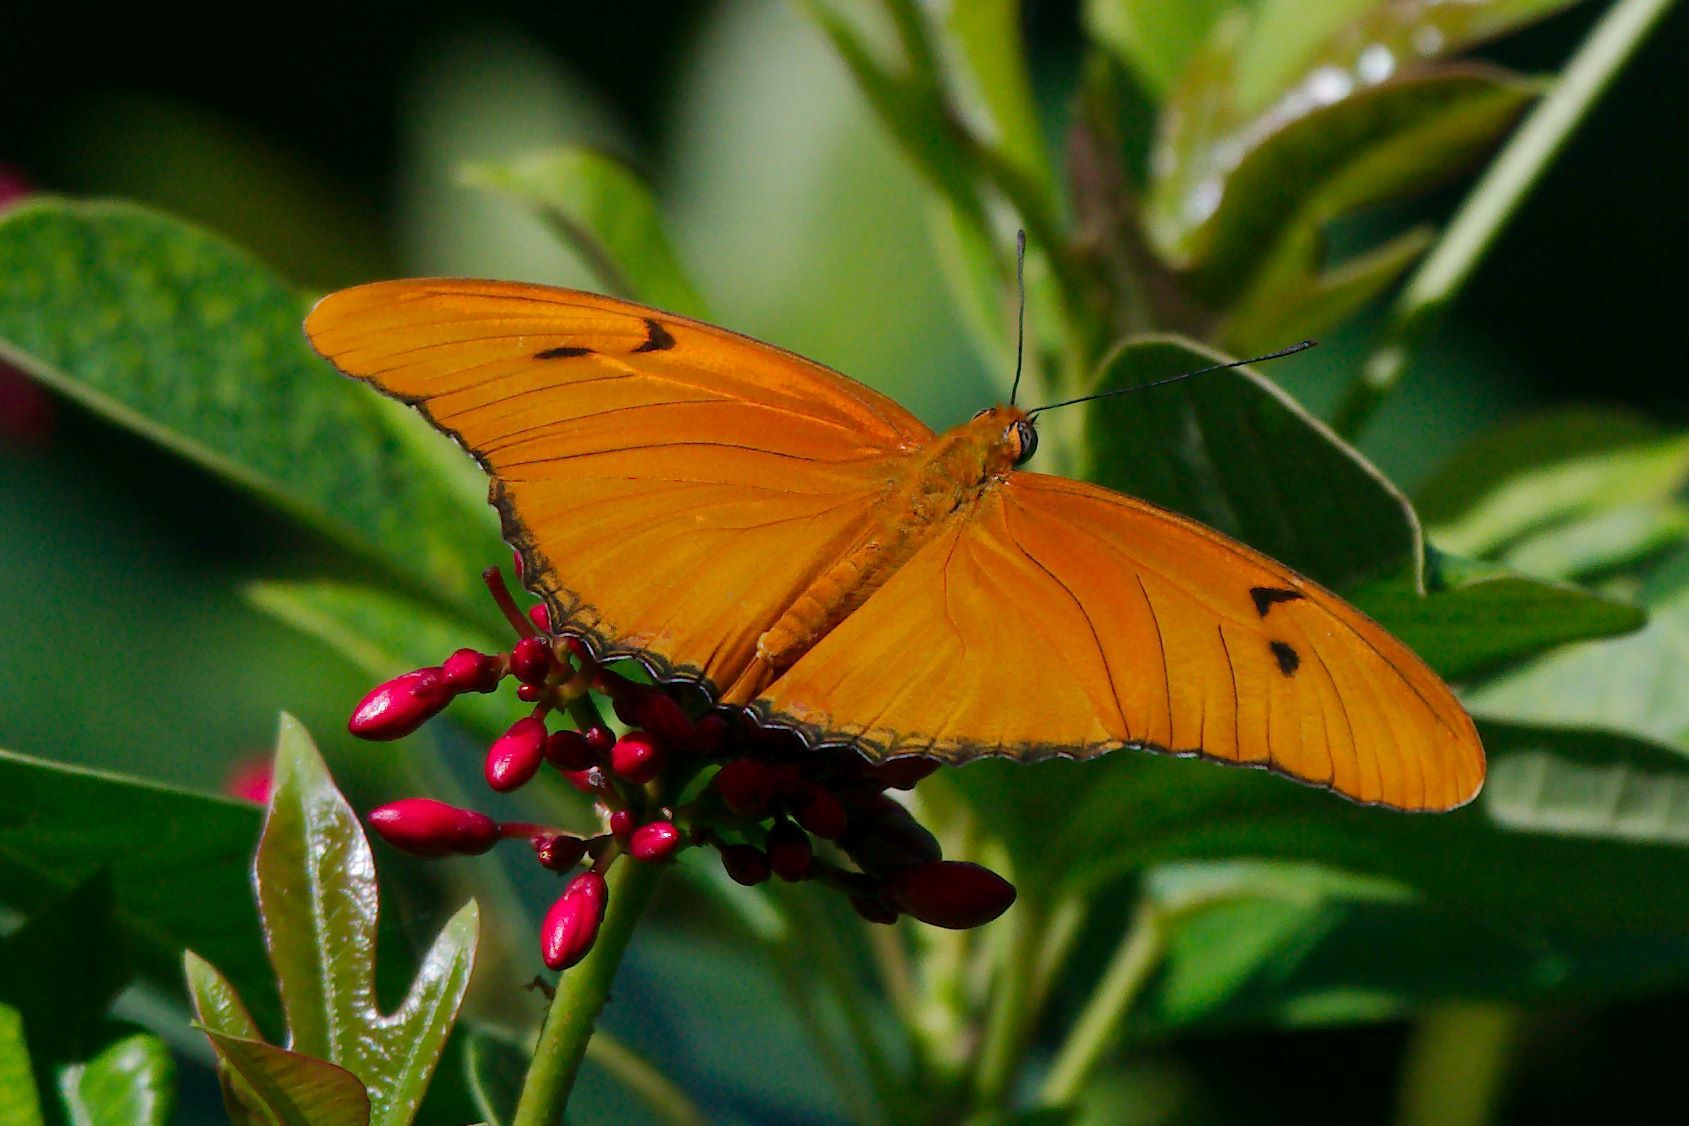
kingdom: Animalia
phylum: Arthropoda
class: Insecta
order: Lepidoptera
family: Nymphalidae
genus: Dryas
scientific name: Dryas iulia
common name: Flambeau
